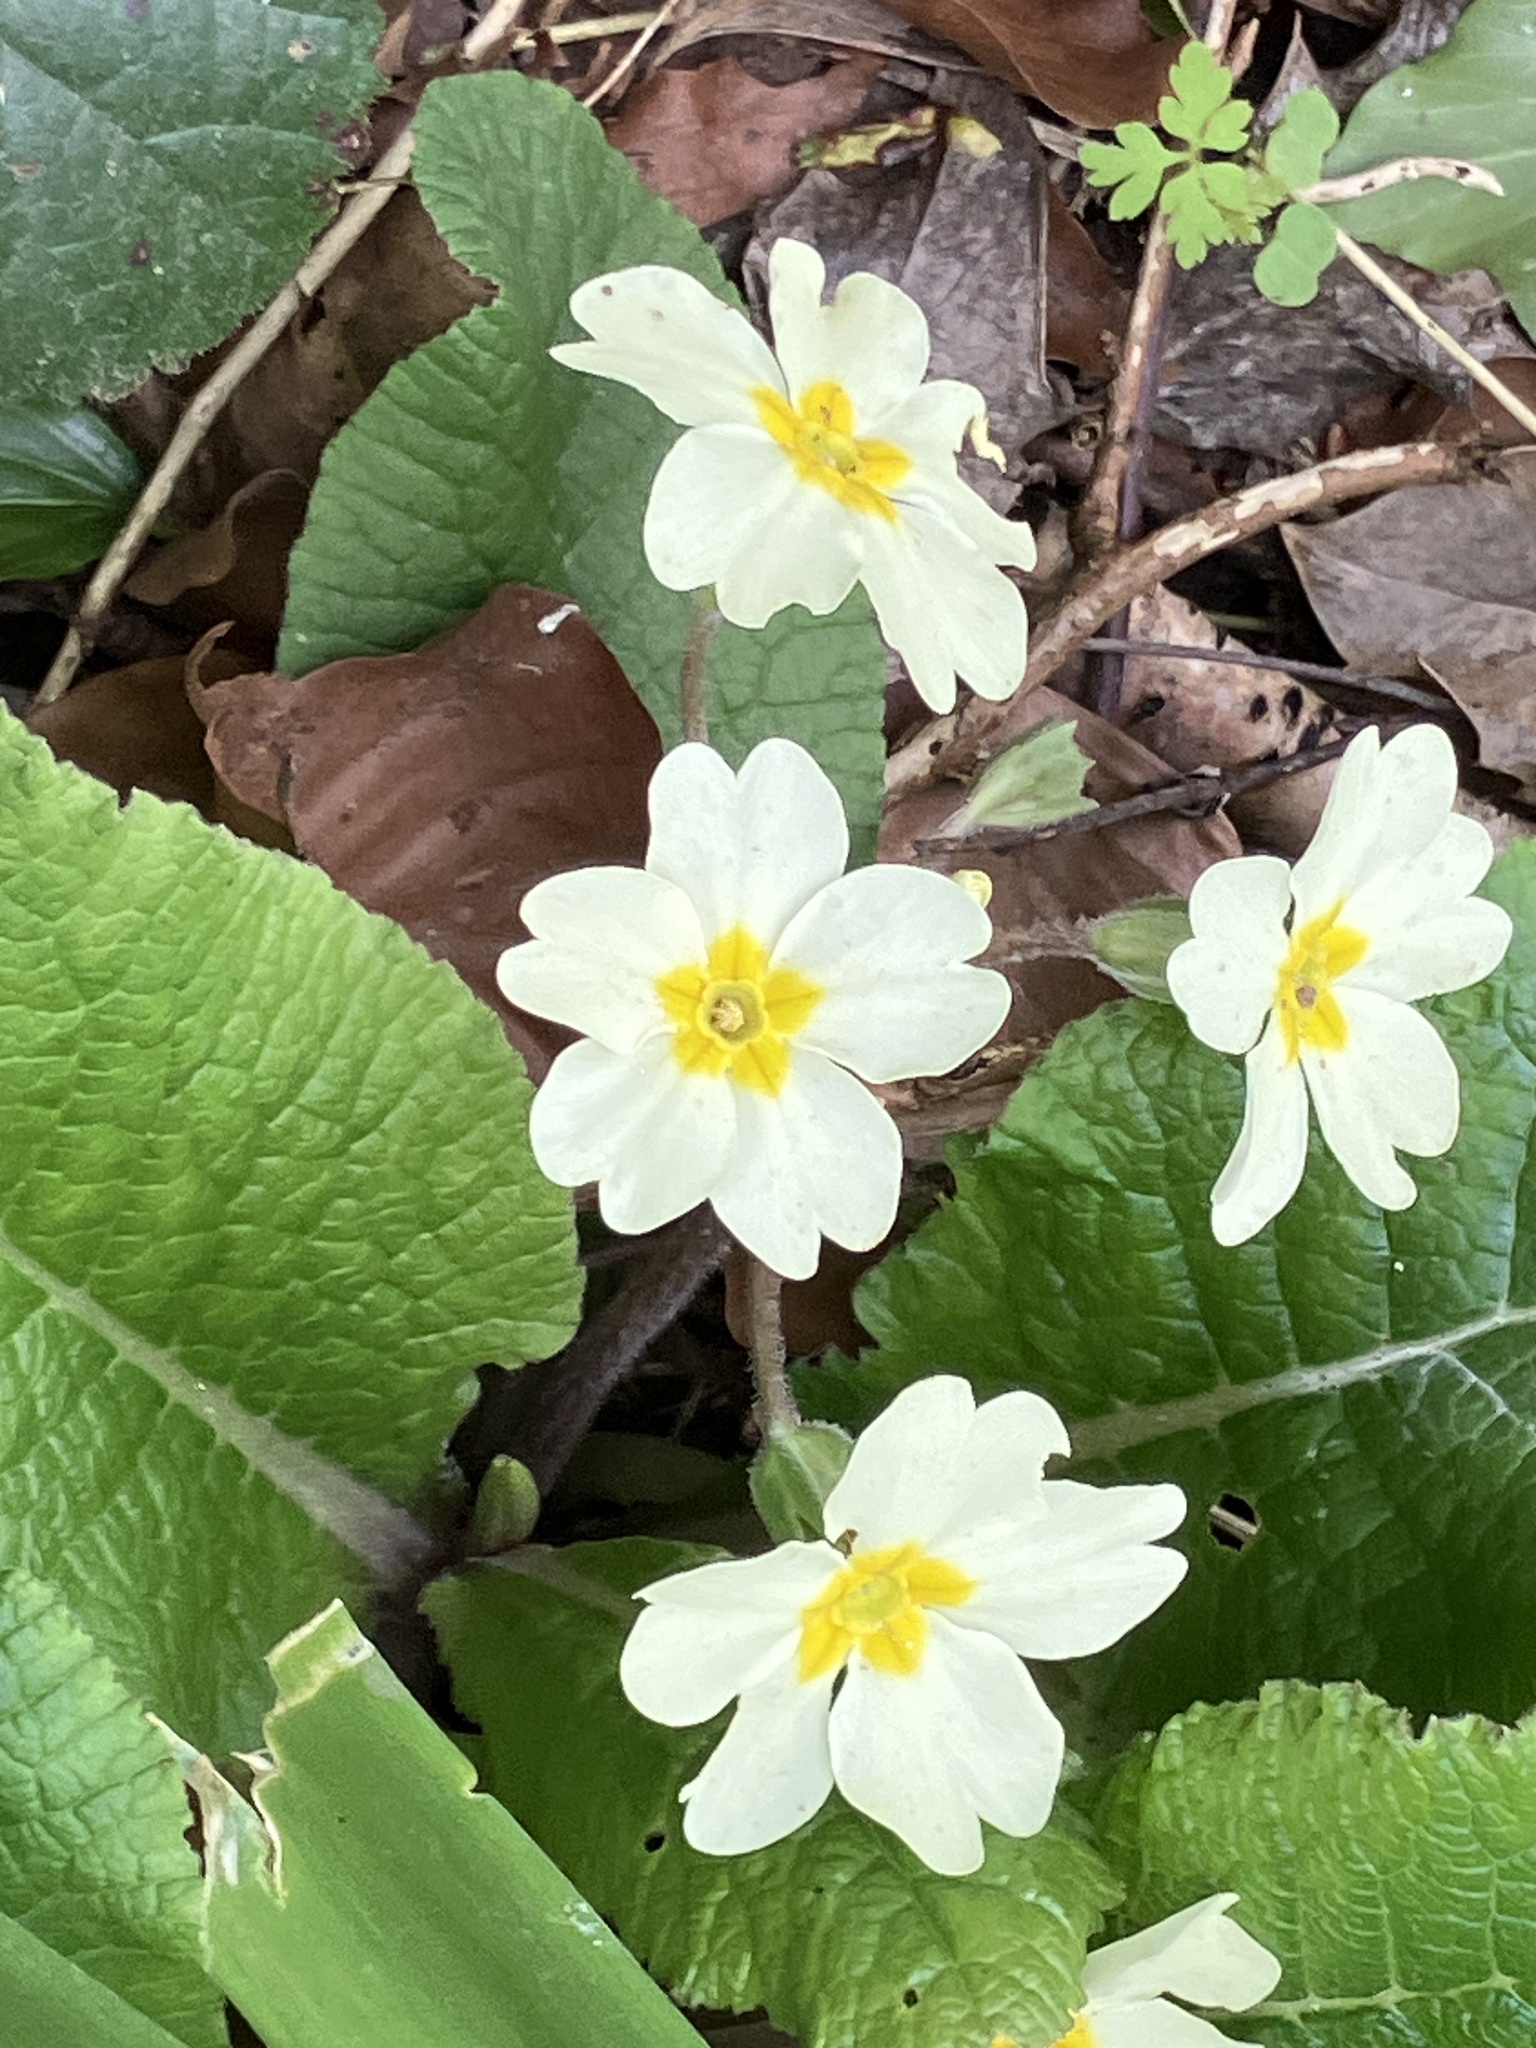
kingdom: Plantae
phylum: Tracheophyta
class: Magnoliopsida
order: Ericales
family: Primulaceae
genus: Primula
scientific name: Primula vulgaris
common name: Primrose
